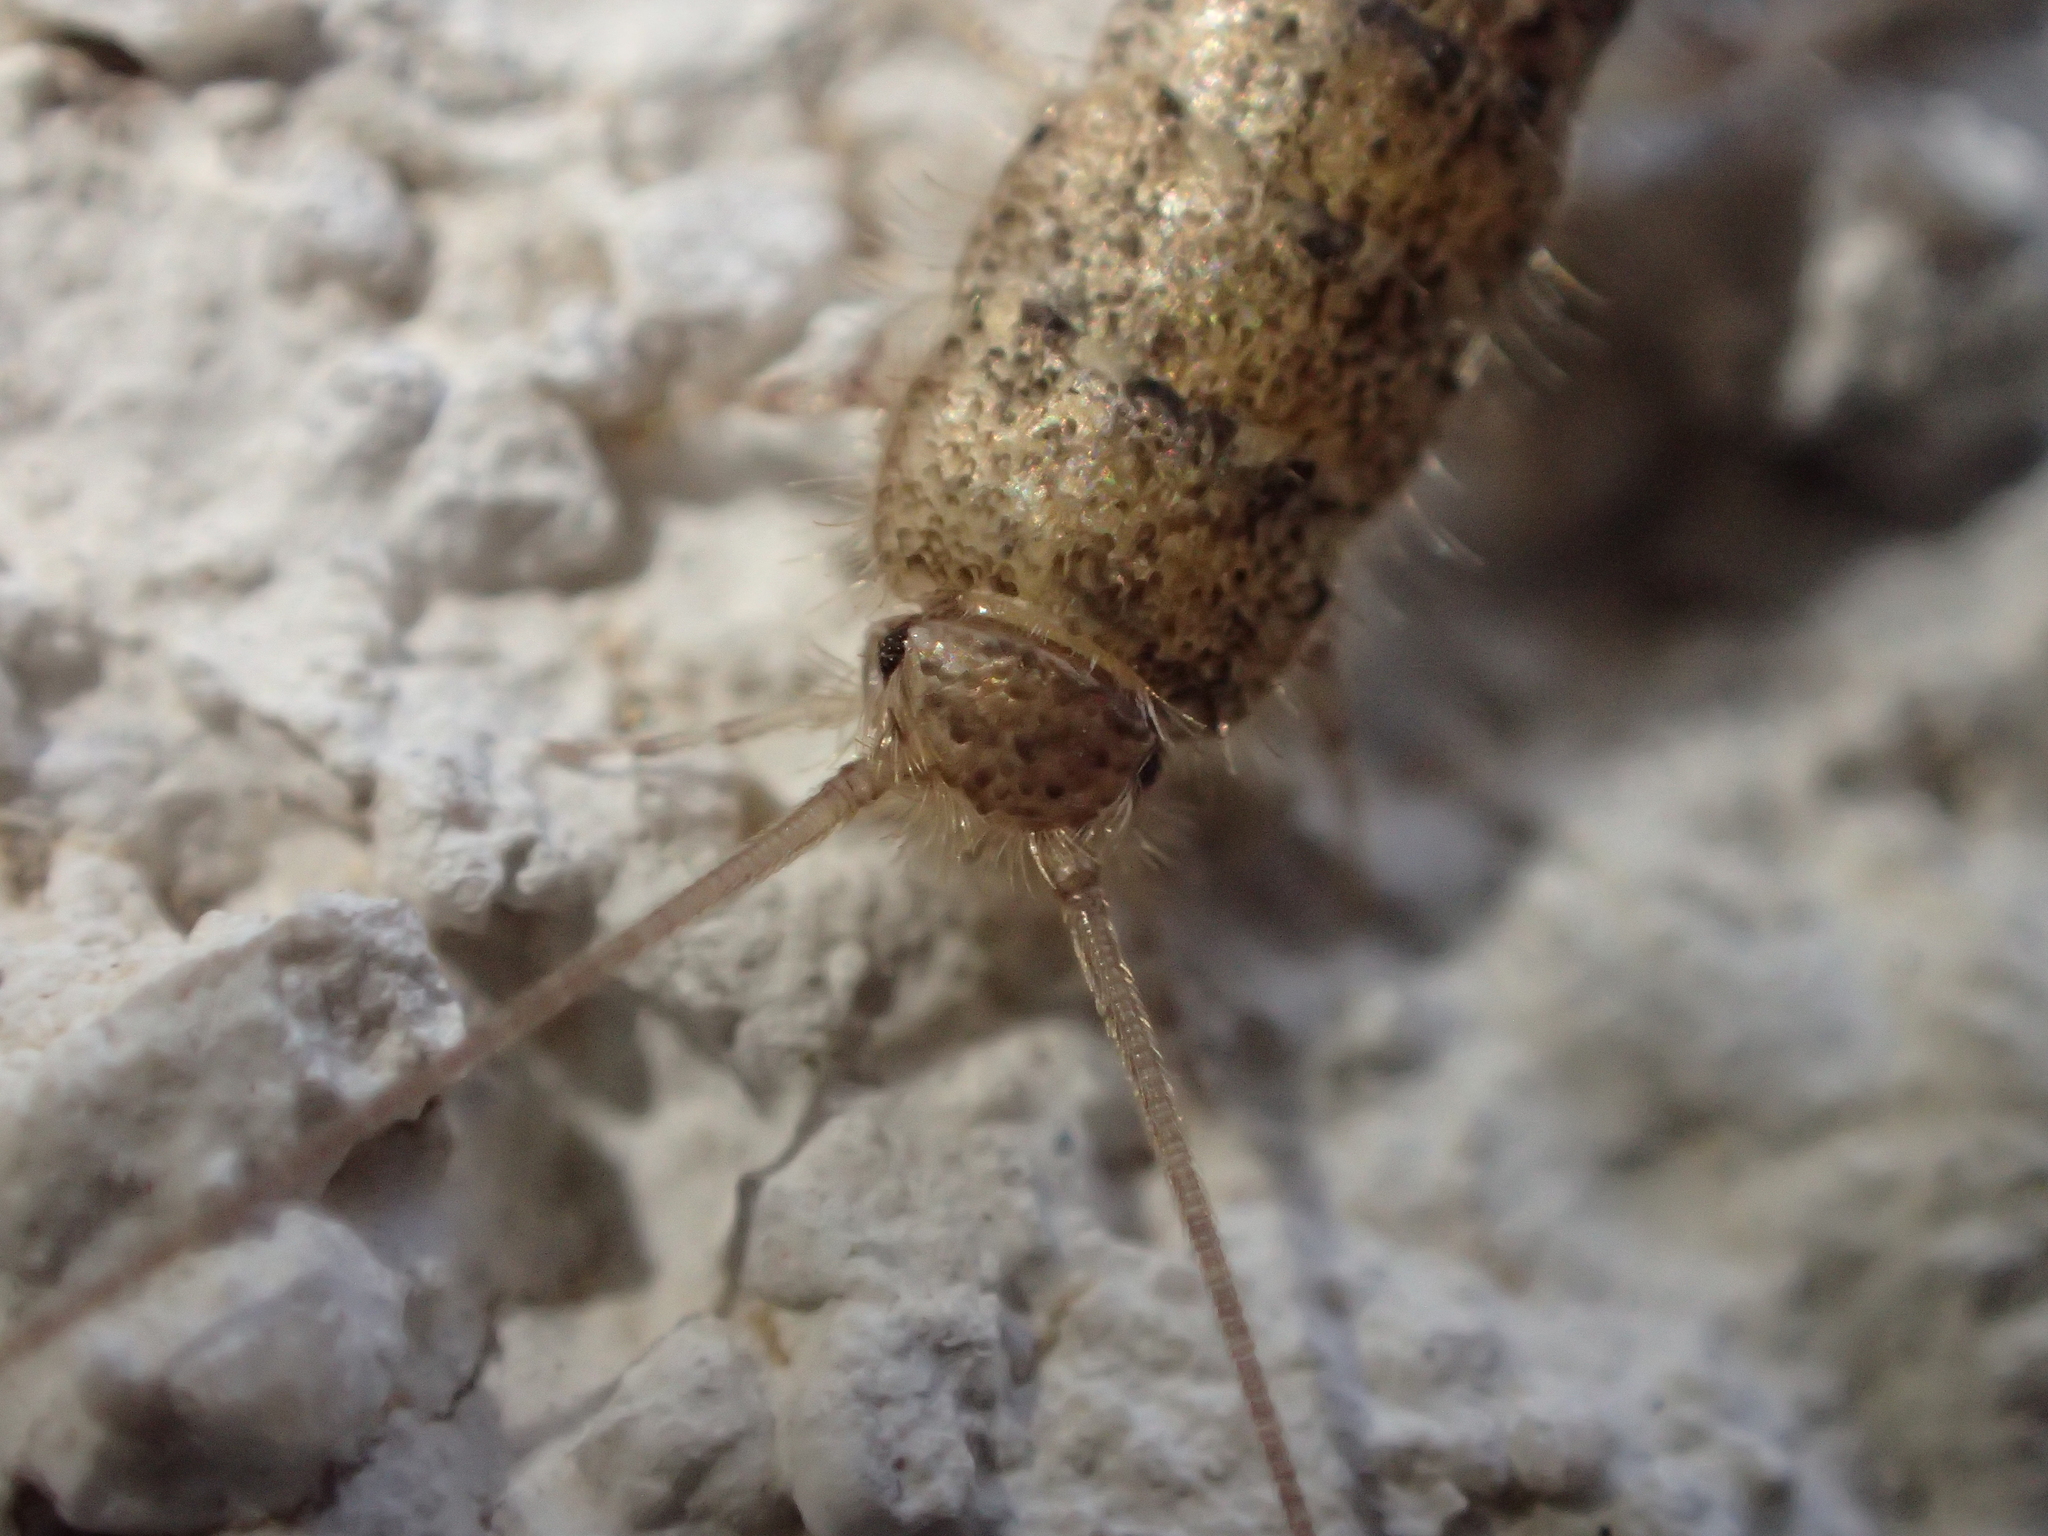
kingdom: Animalia
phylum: Arthropoda
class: Insecta
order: Zygentoma
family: Lepismatidae
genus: Ctenolepisma
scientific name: Ctenolepisma lineata
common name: Four-lined silverfish
